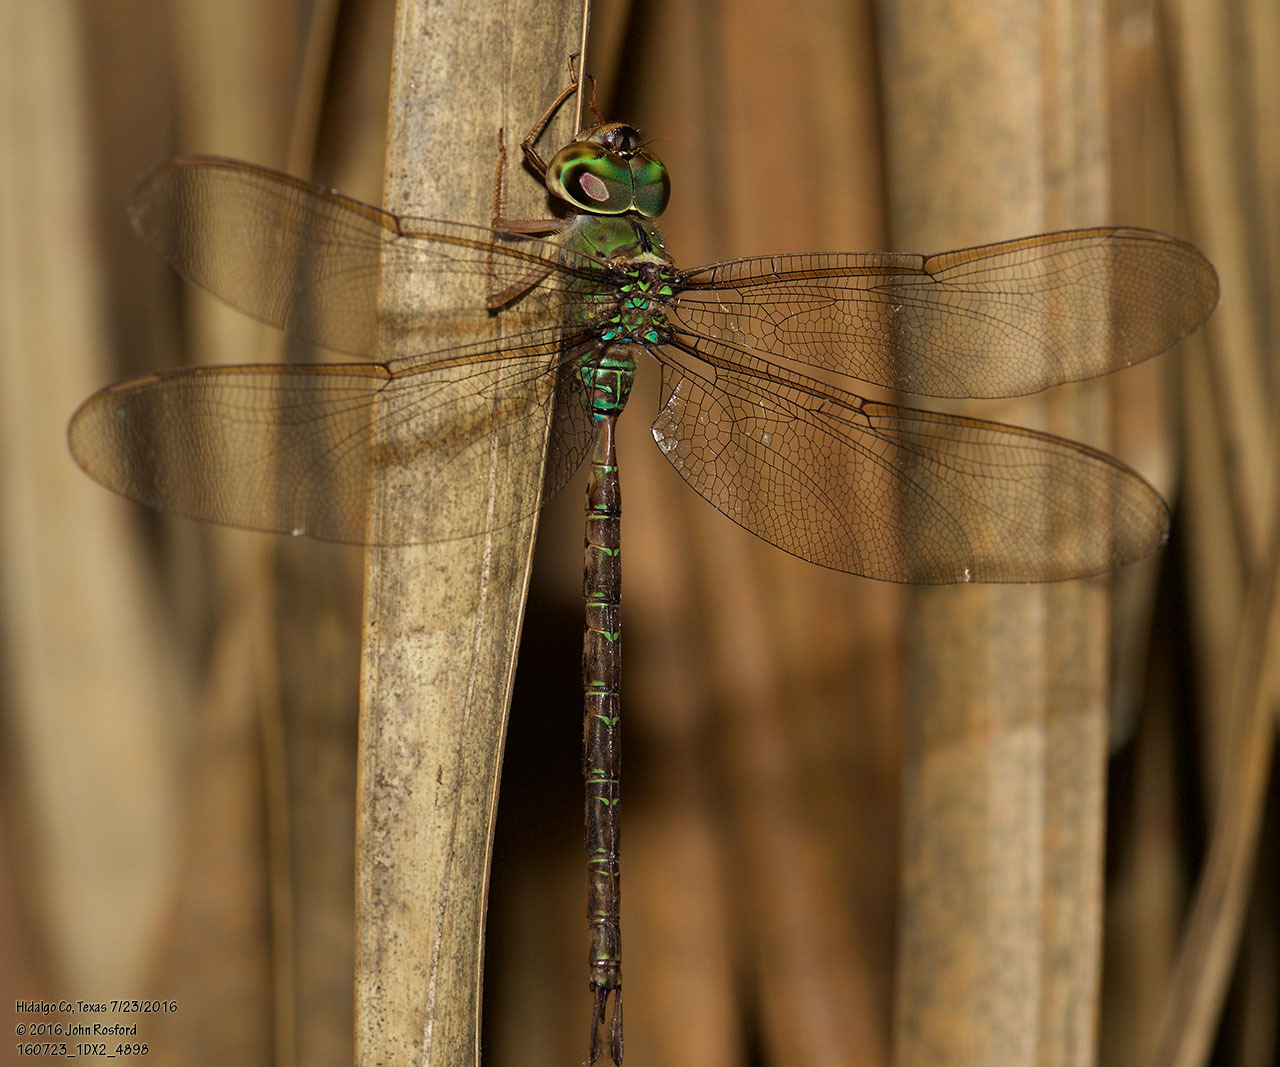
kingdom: Animalia
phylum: Arthropoda
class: Insecta
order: Odonata
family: Aeshnidae
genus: Gynacantha
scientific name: Gynacantha mexicana
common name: Bar-sided darner
